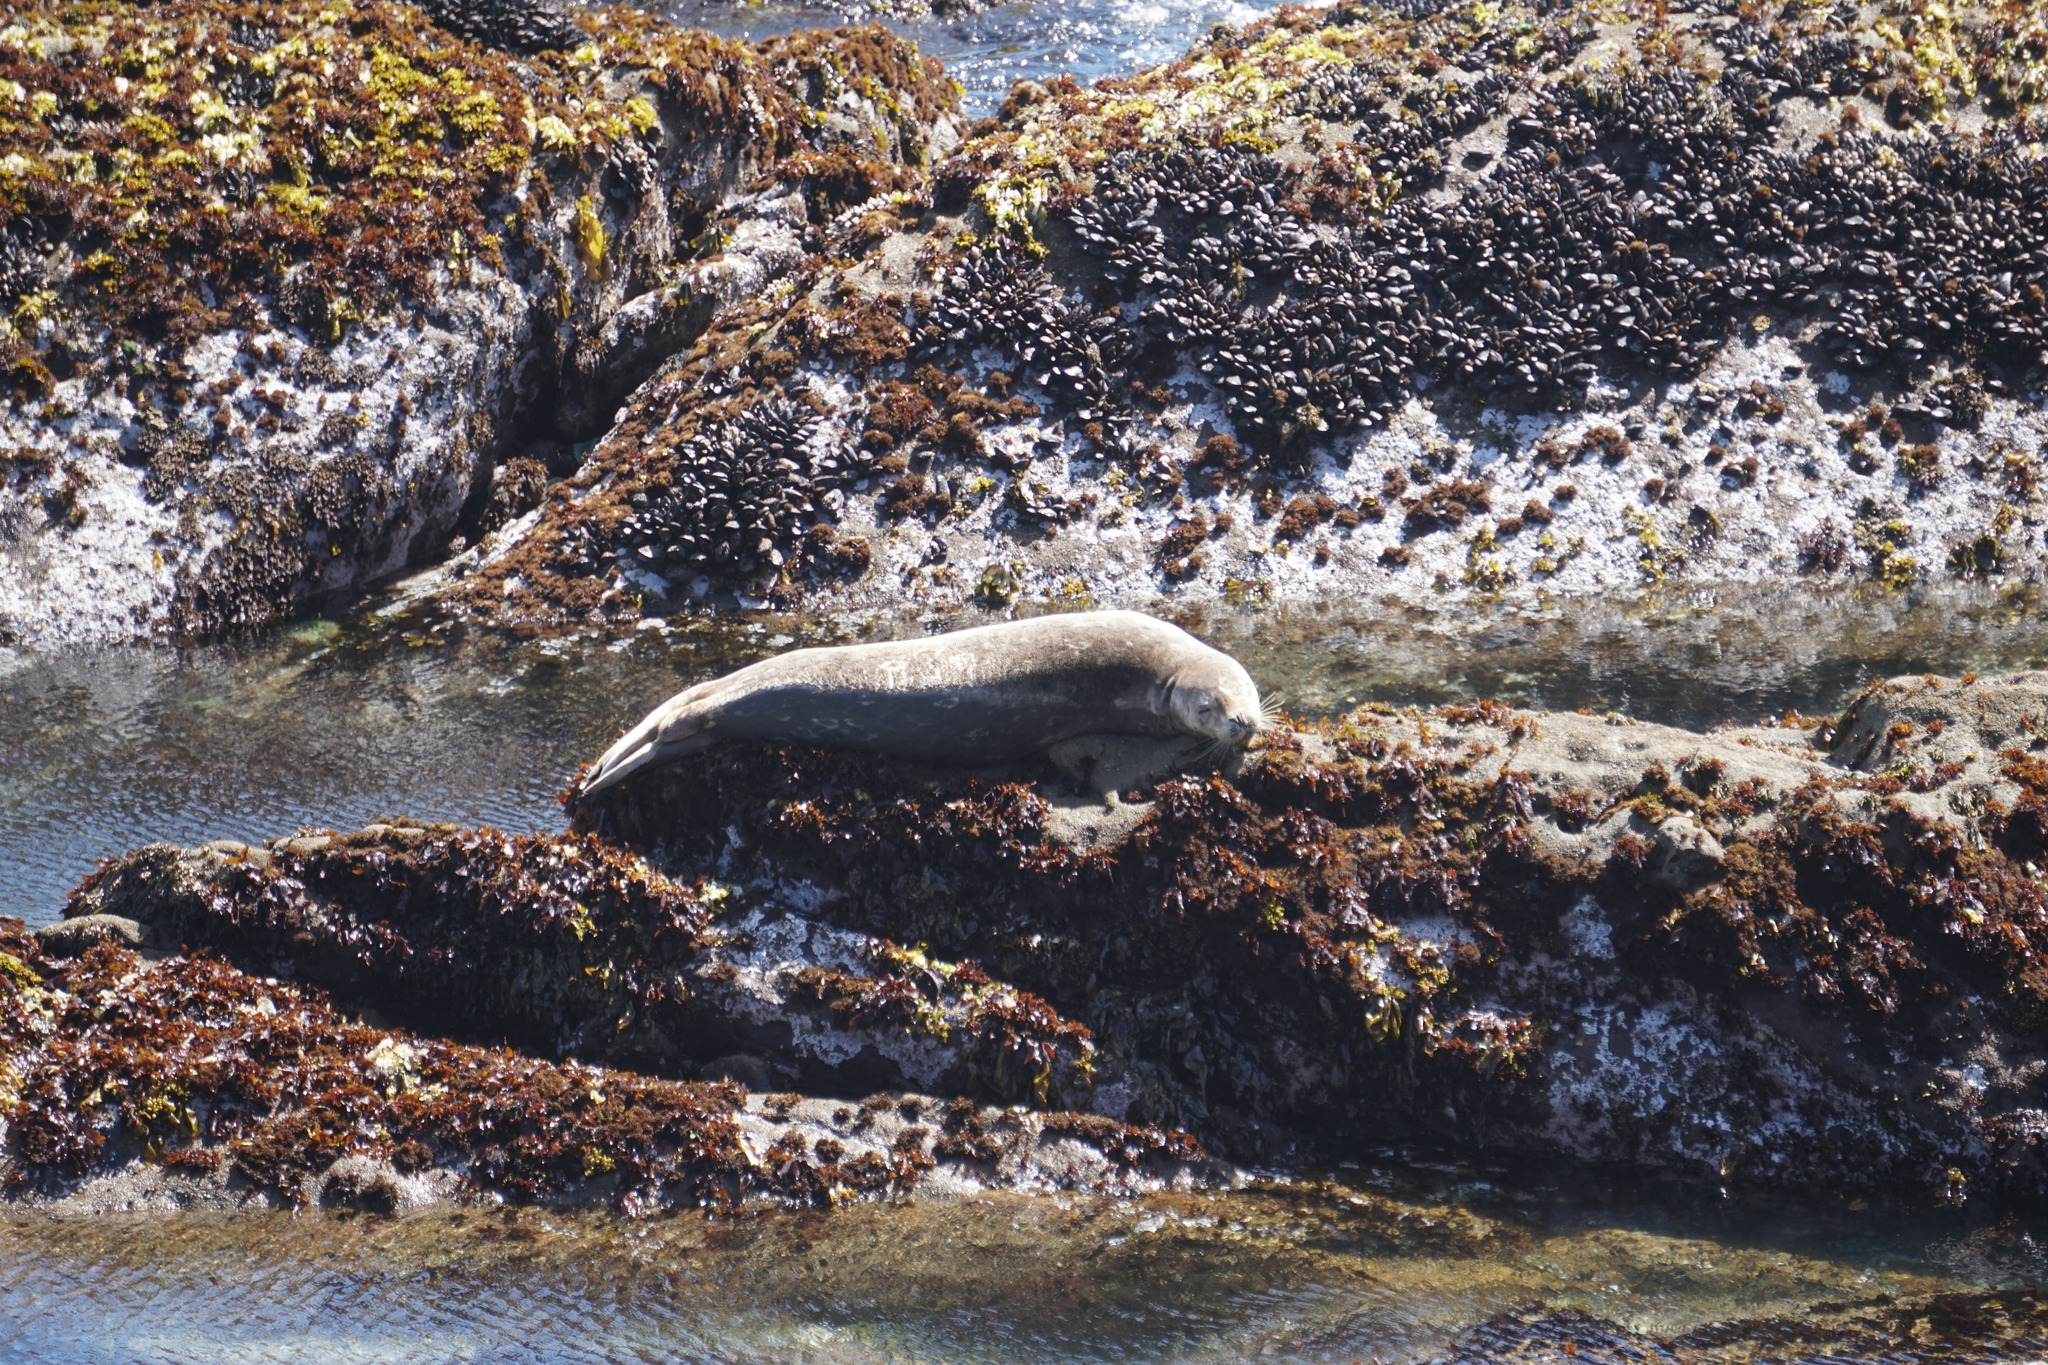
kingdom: Animalia
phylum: Chordata
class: Mammalia
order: Carnivora
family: Phocidae
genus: Phoca
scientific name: Phoca vitulina
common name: Harbor seal
